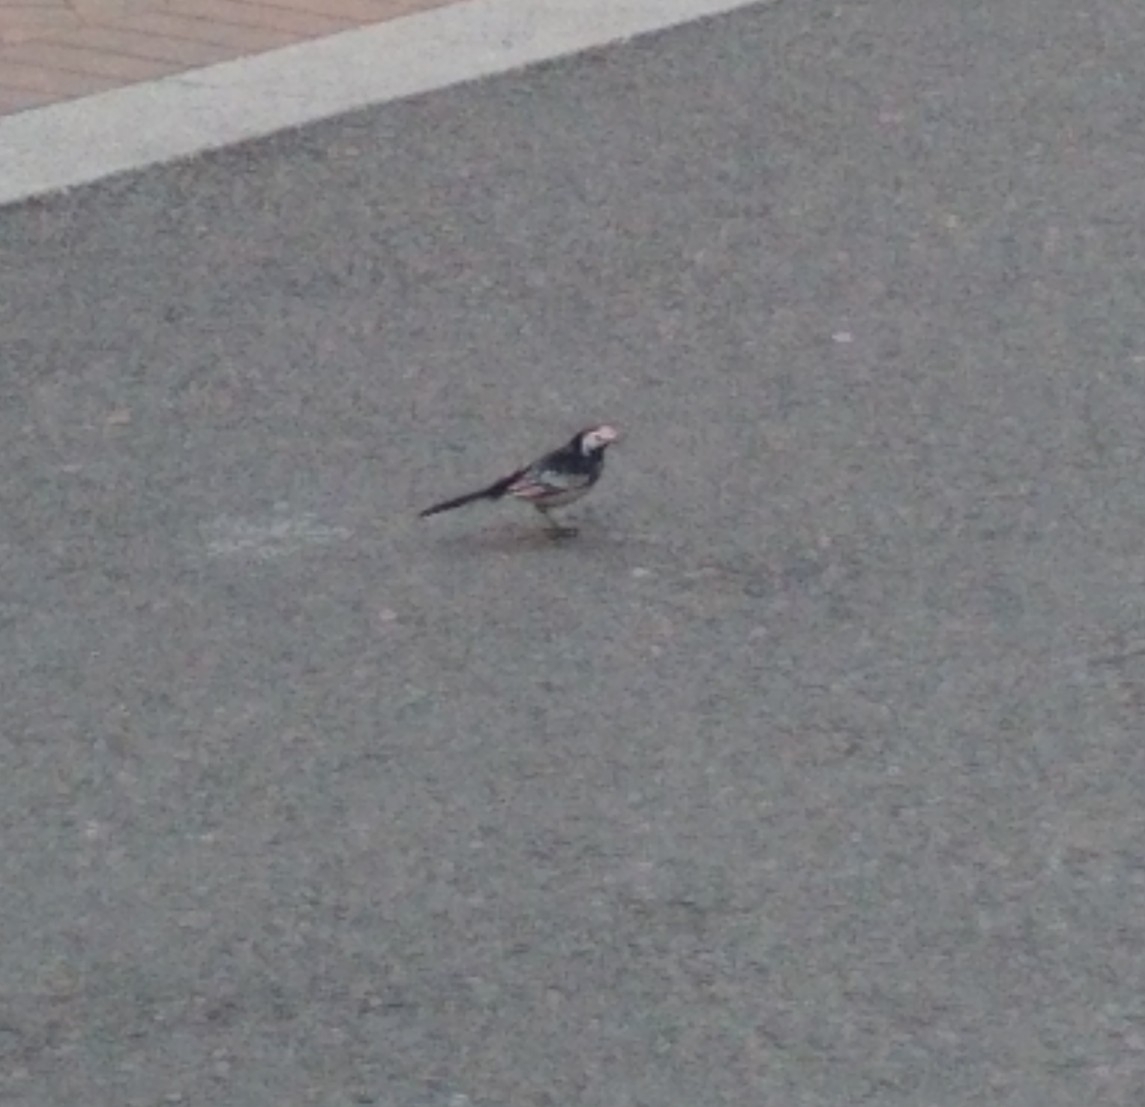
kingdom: Animalia
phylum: Chordata
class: Aves
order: Passeriformes
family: Motacillidae
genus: Motacilla
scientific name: Motacilla alba
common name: White wagtail
